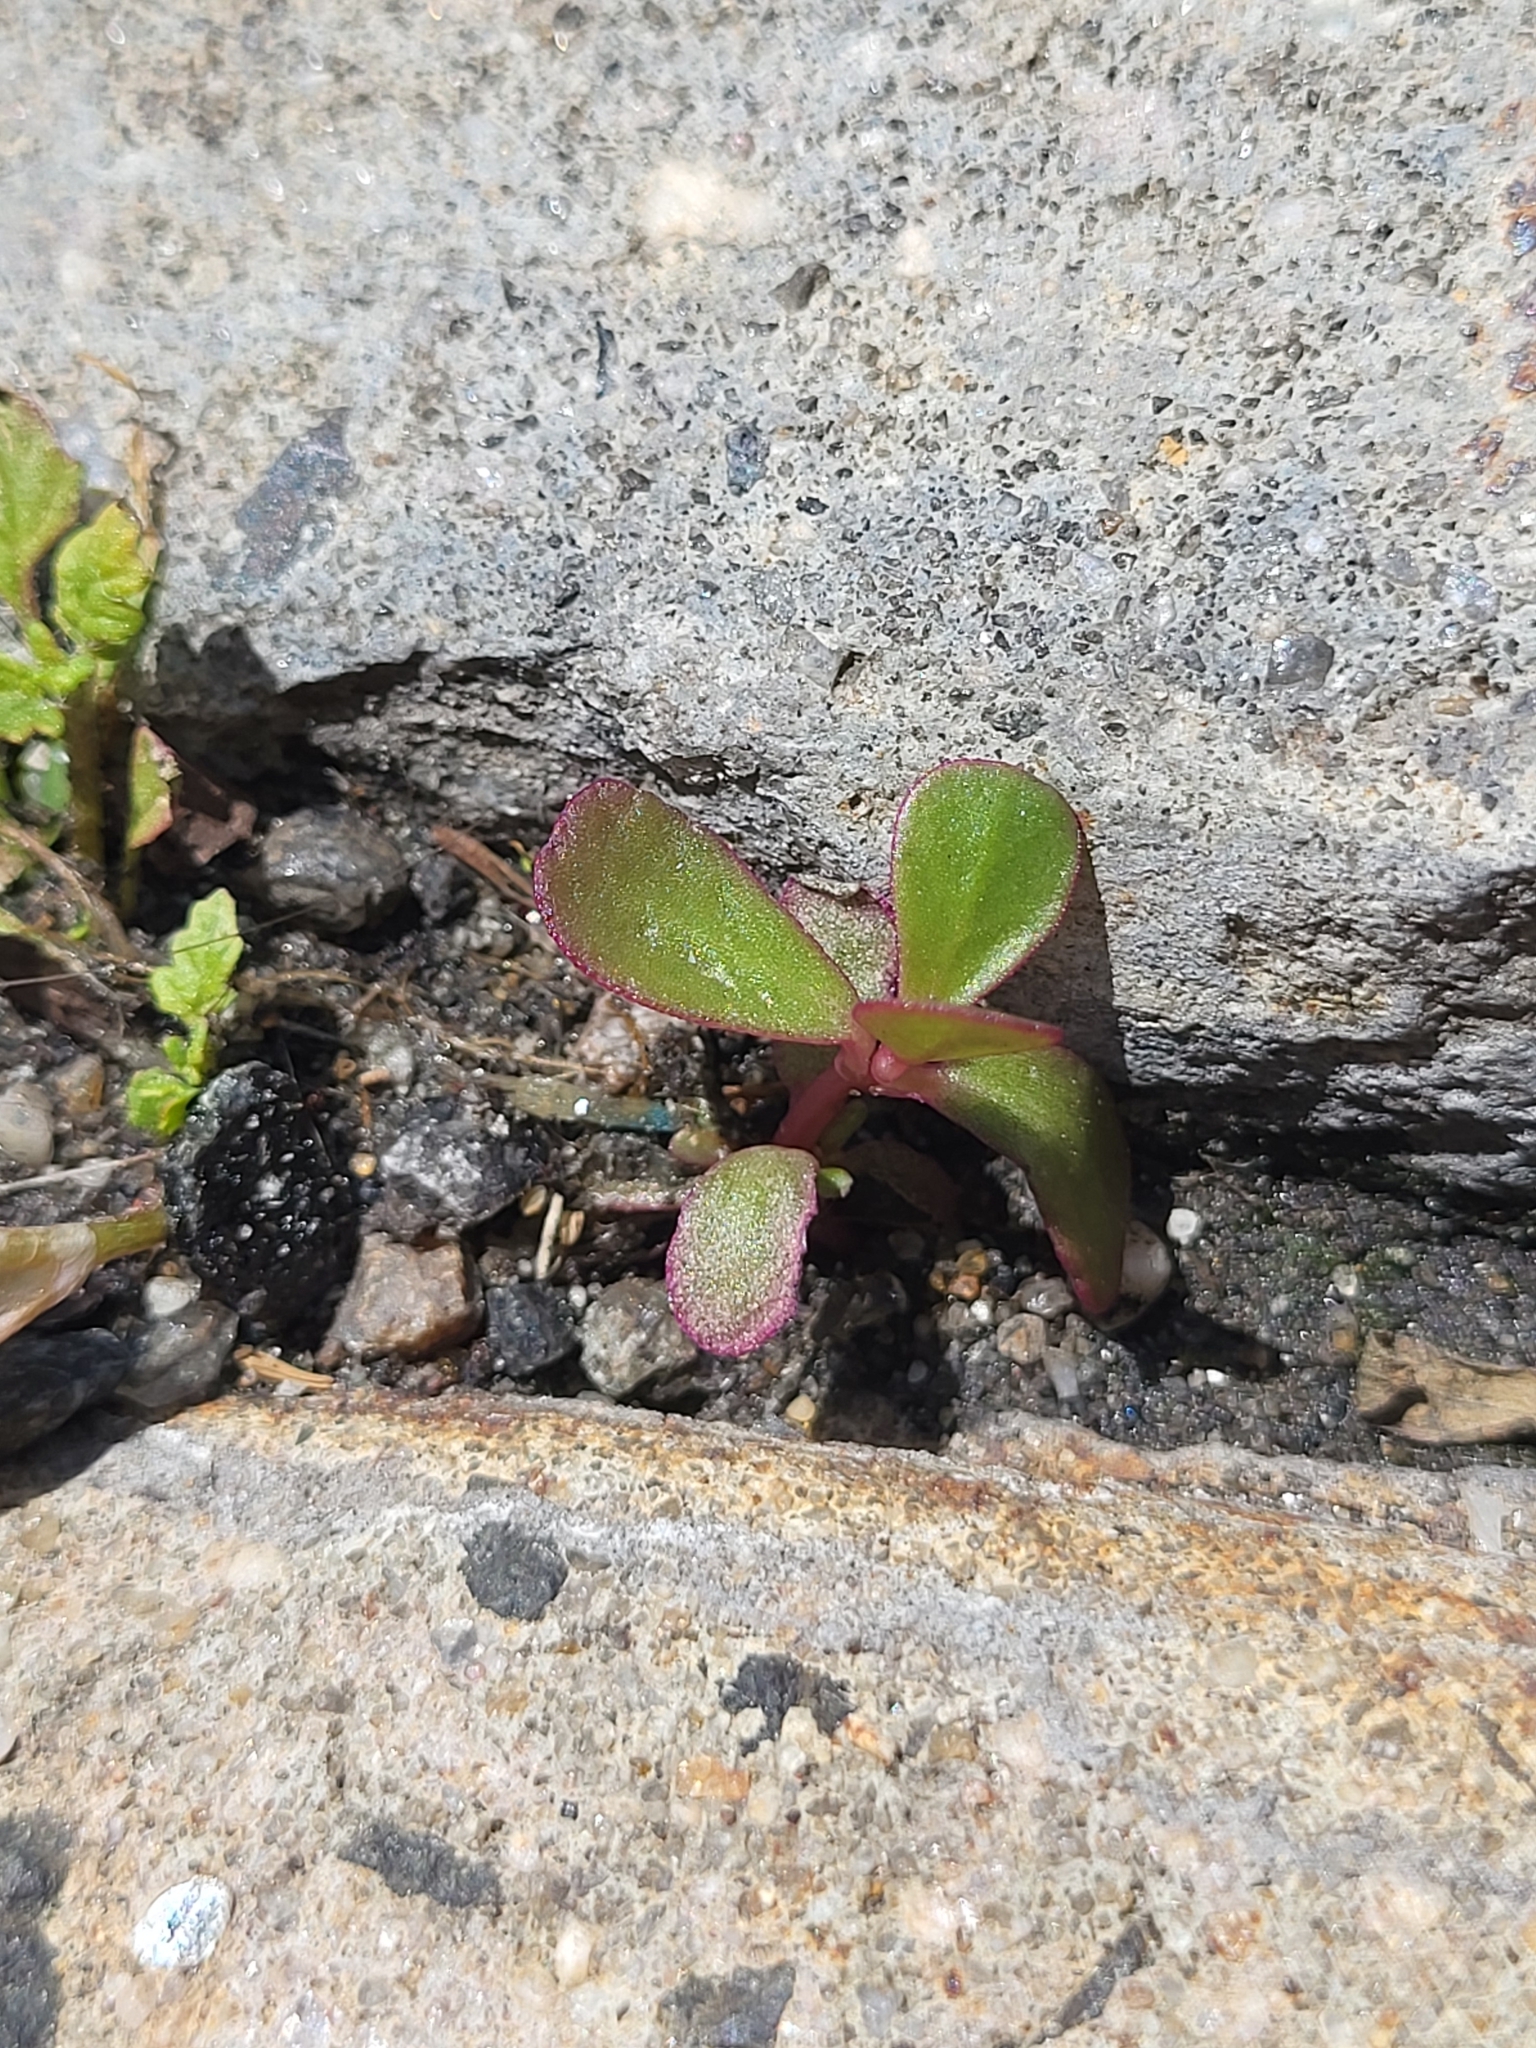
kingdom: Plantae
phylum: Tracheophyta
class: Magnoliopsida
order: Caryophyllales
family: Portulacaceae
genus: Portulaca
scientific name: Portulaca oleracea
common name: Common purslane
